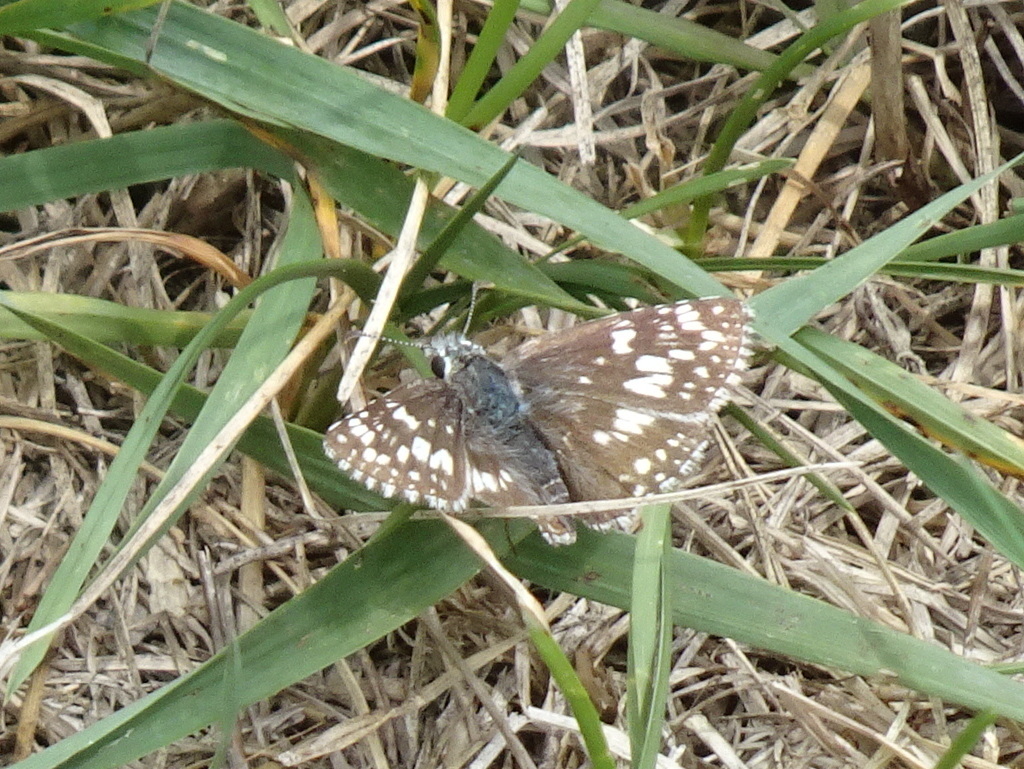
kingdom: Animalia
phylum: Arthropoda
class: Insecta
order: Lepidoptera
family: Hesperiidae
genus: Burnsius
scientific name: Burnsius communis
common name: Common checkered-skipper
